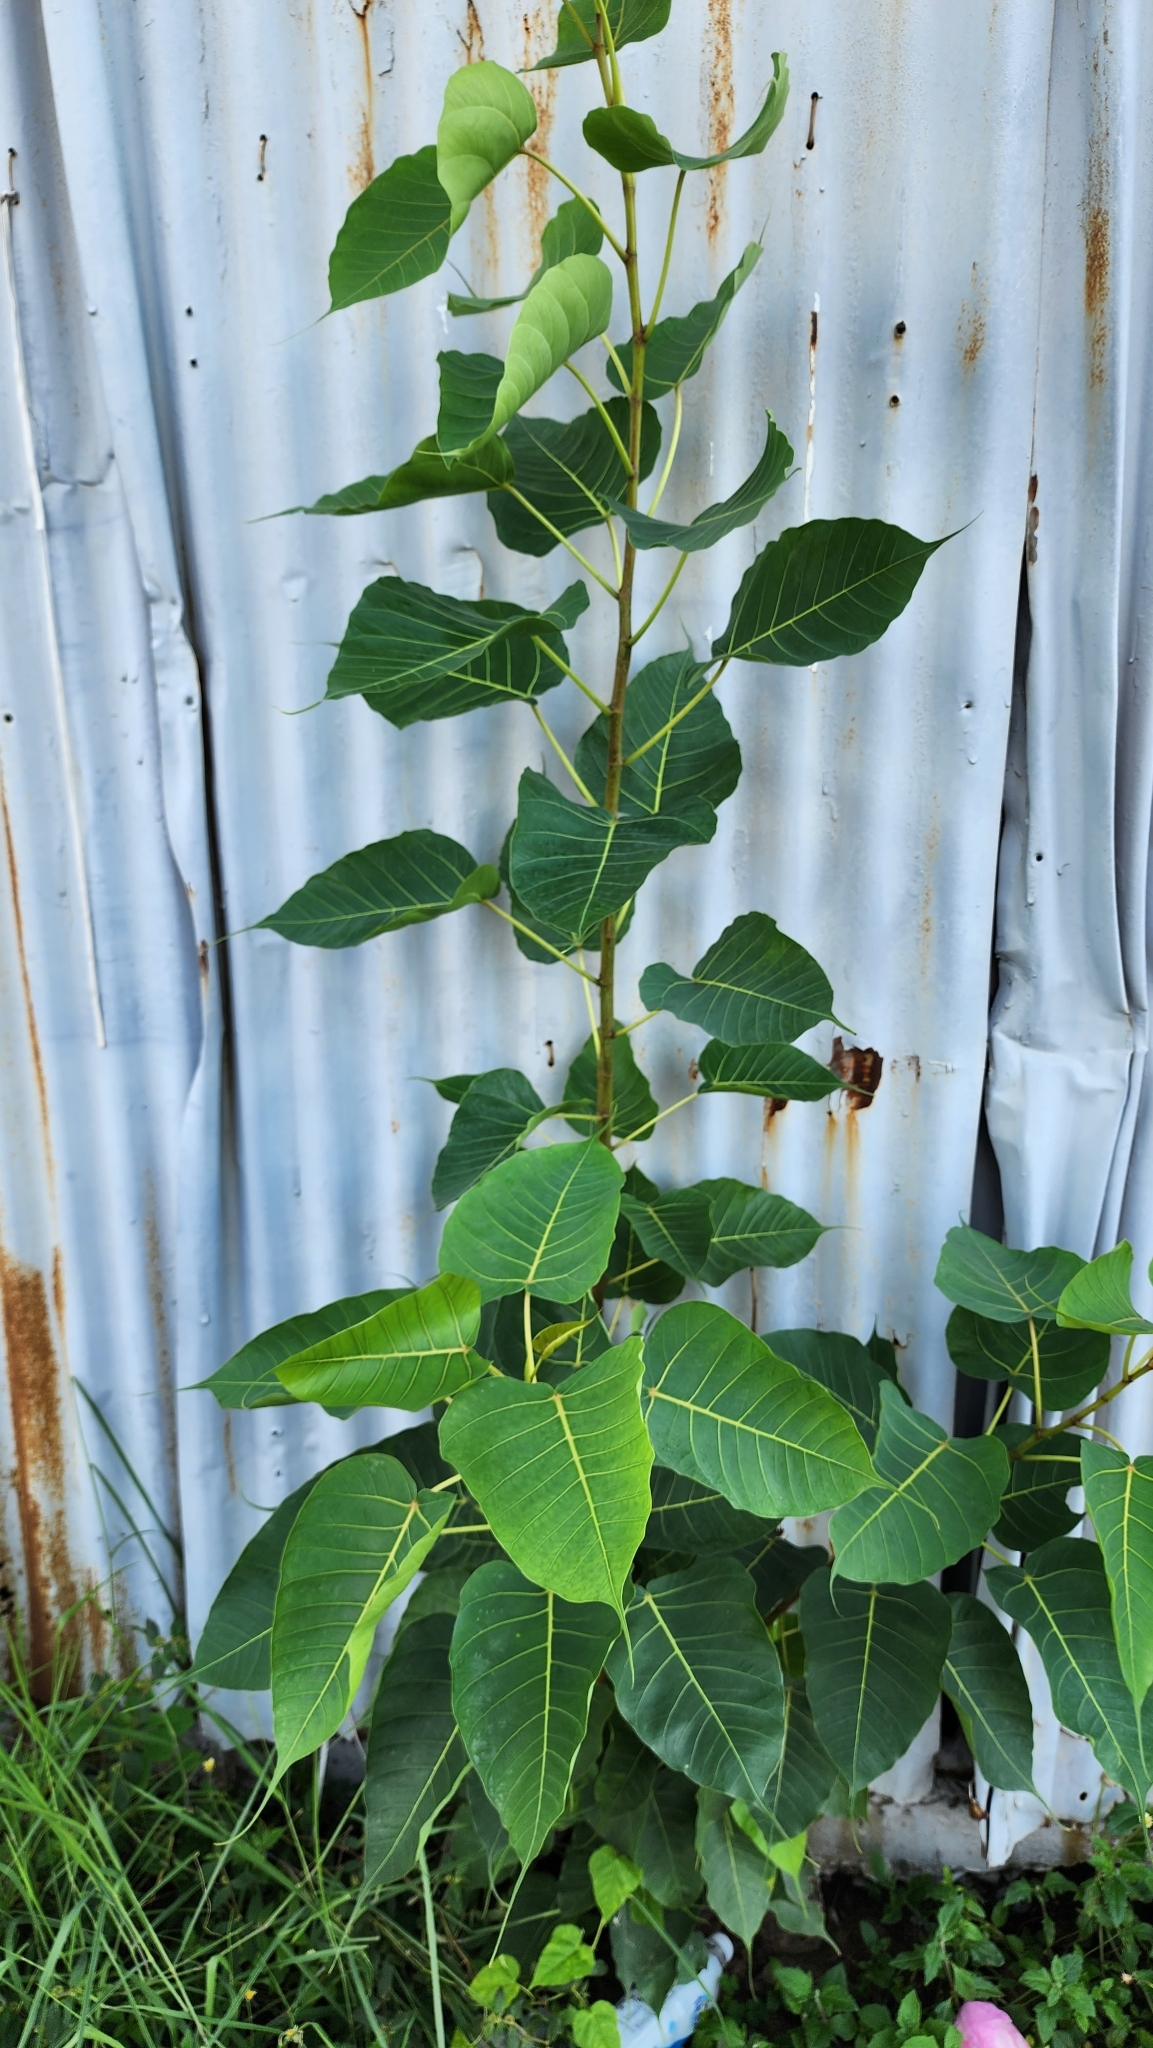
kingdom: Plantae
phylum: Tracheophyta
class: Magnoliopsida
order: Rosales
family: Moraceae
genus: Ficus
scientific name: Ficus religiosa
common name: Bodhi tree
